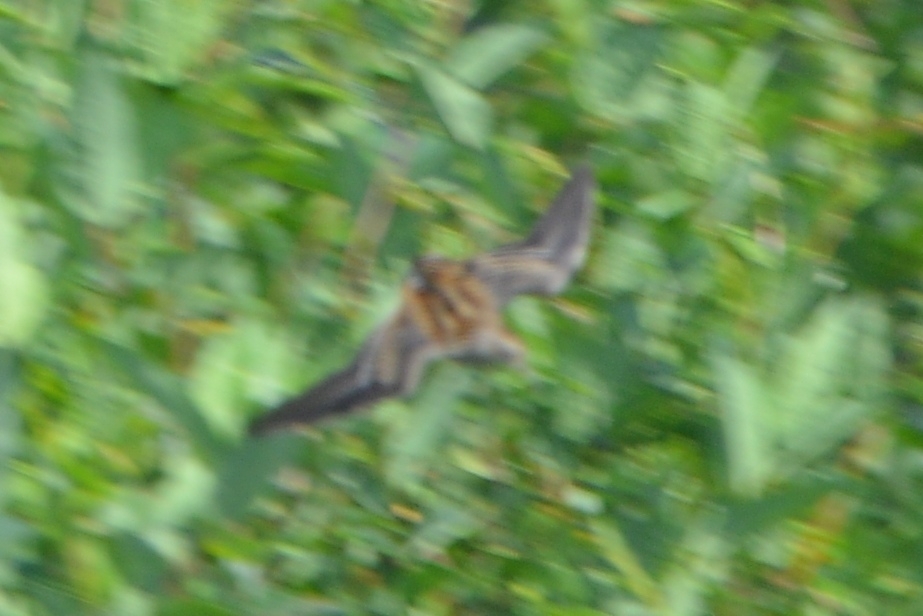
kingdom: Animalia
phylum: Chordata
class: Aves
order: Charadriiformes
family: Scolopacidae
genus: Calidris
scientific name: Calidris subminuta
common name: Long-toed stint
